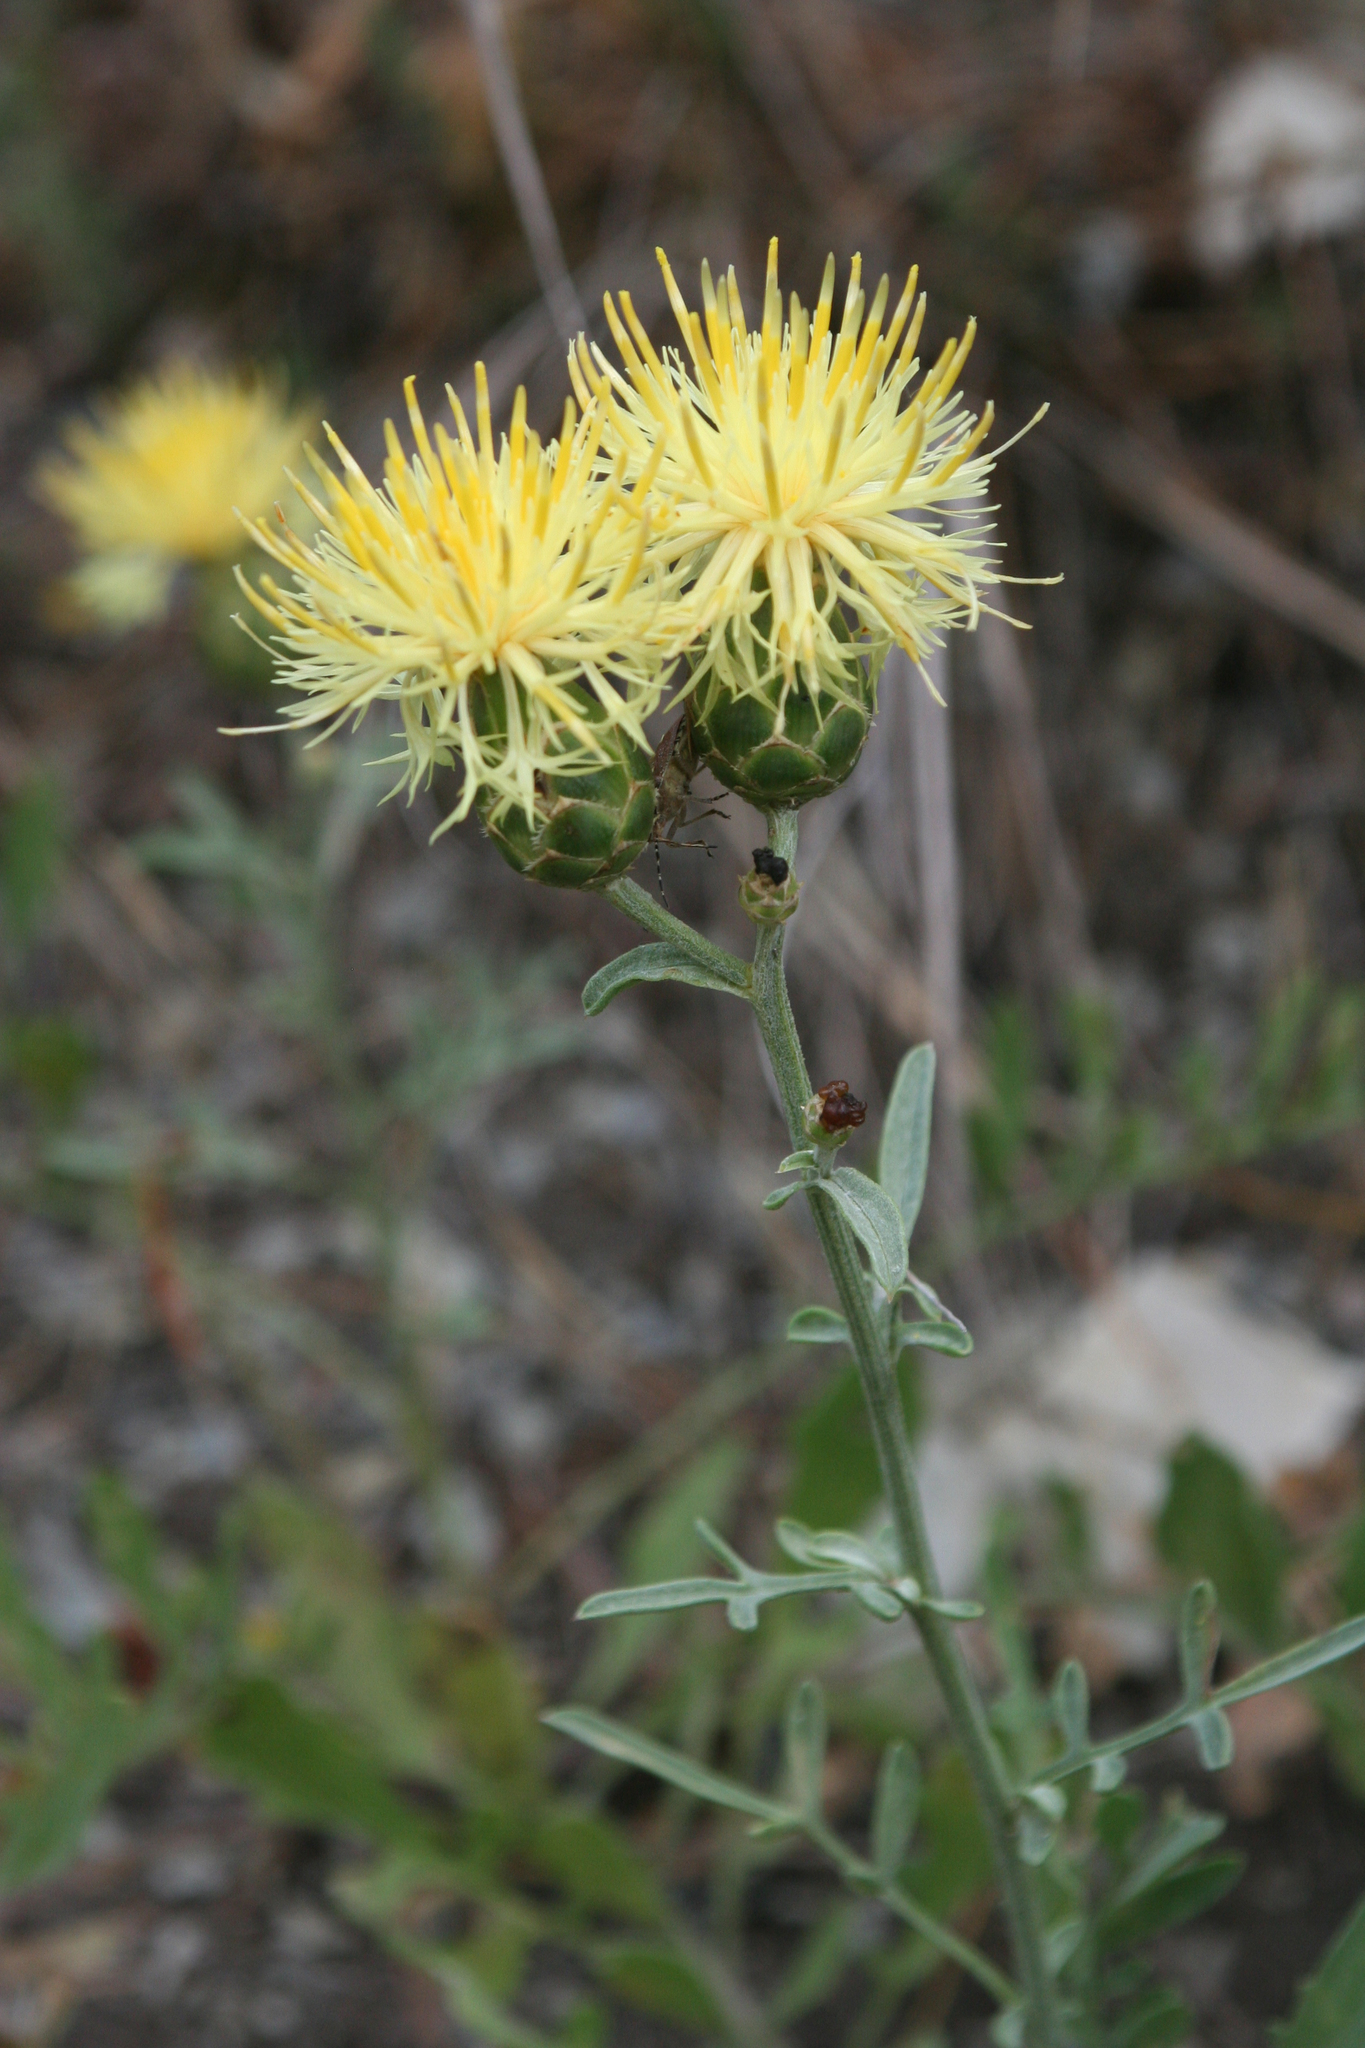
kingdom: Plantae
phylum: Tracheophyta
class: Magnoliopsida
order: Asterales
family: Asteraceae
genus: Centaurea
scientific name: Centaurea salonitana
